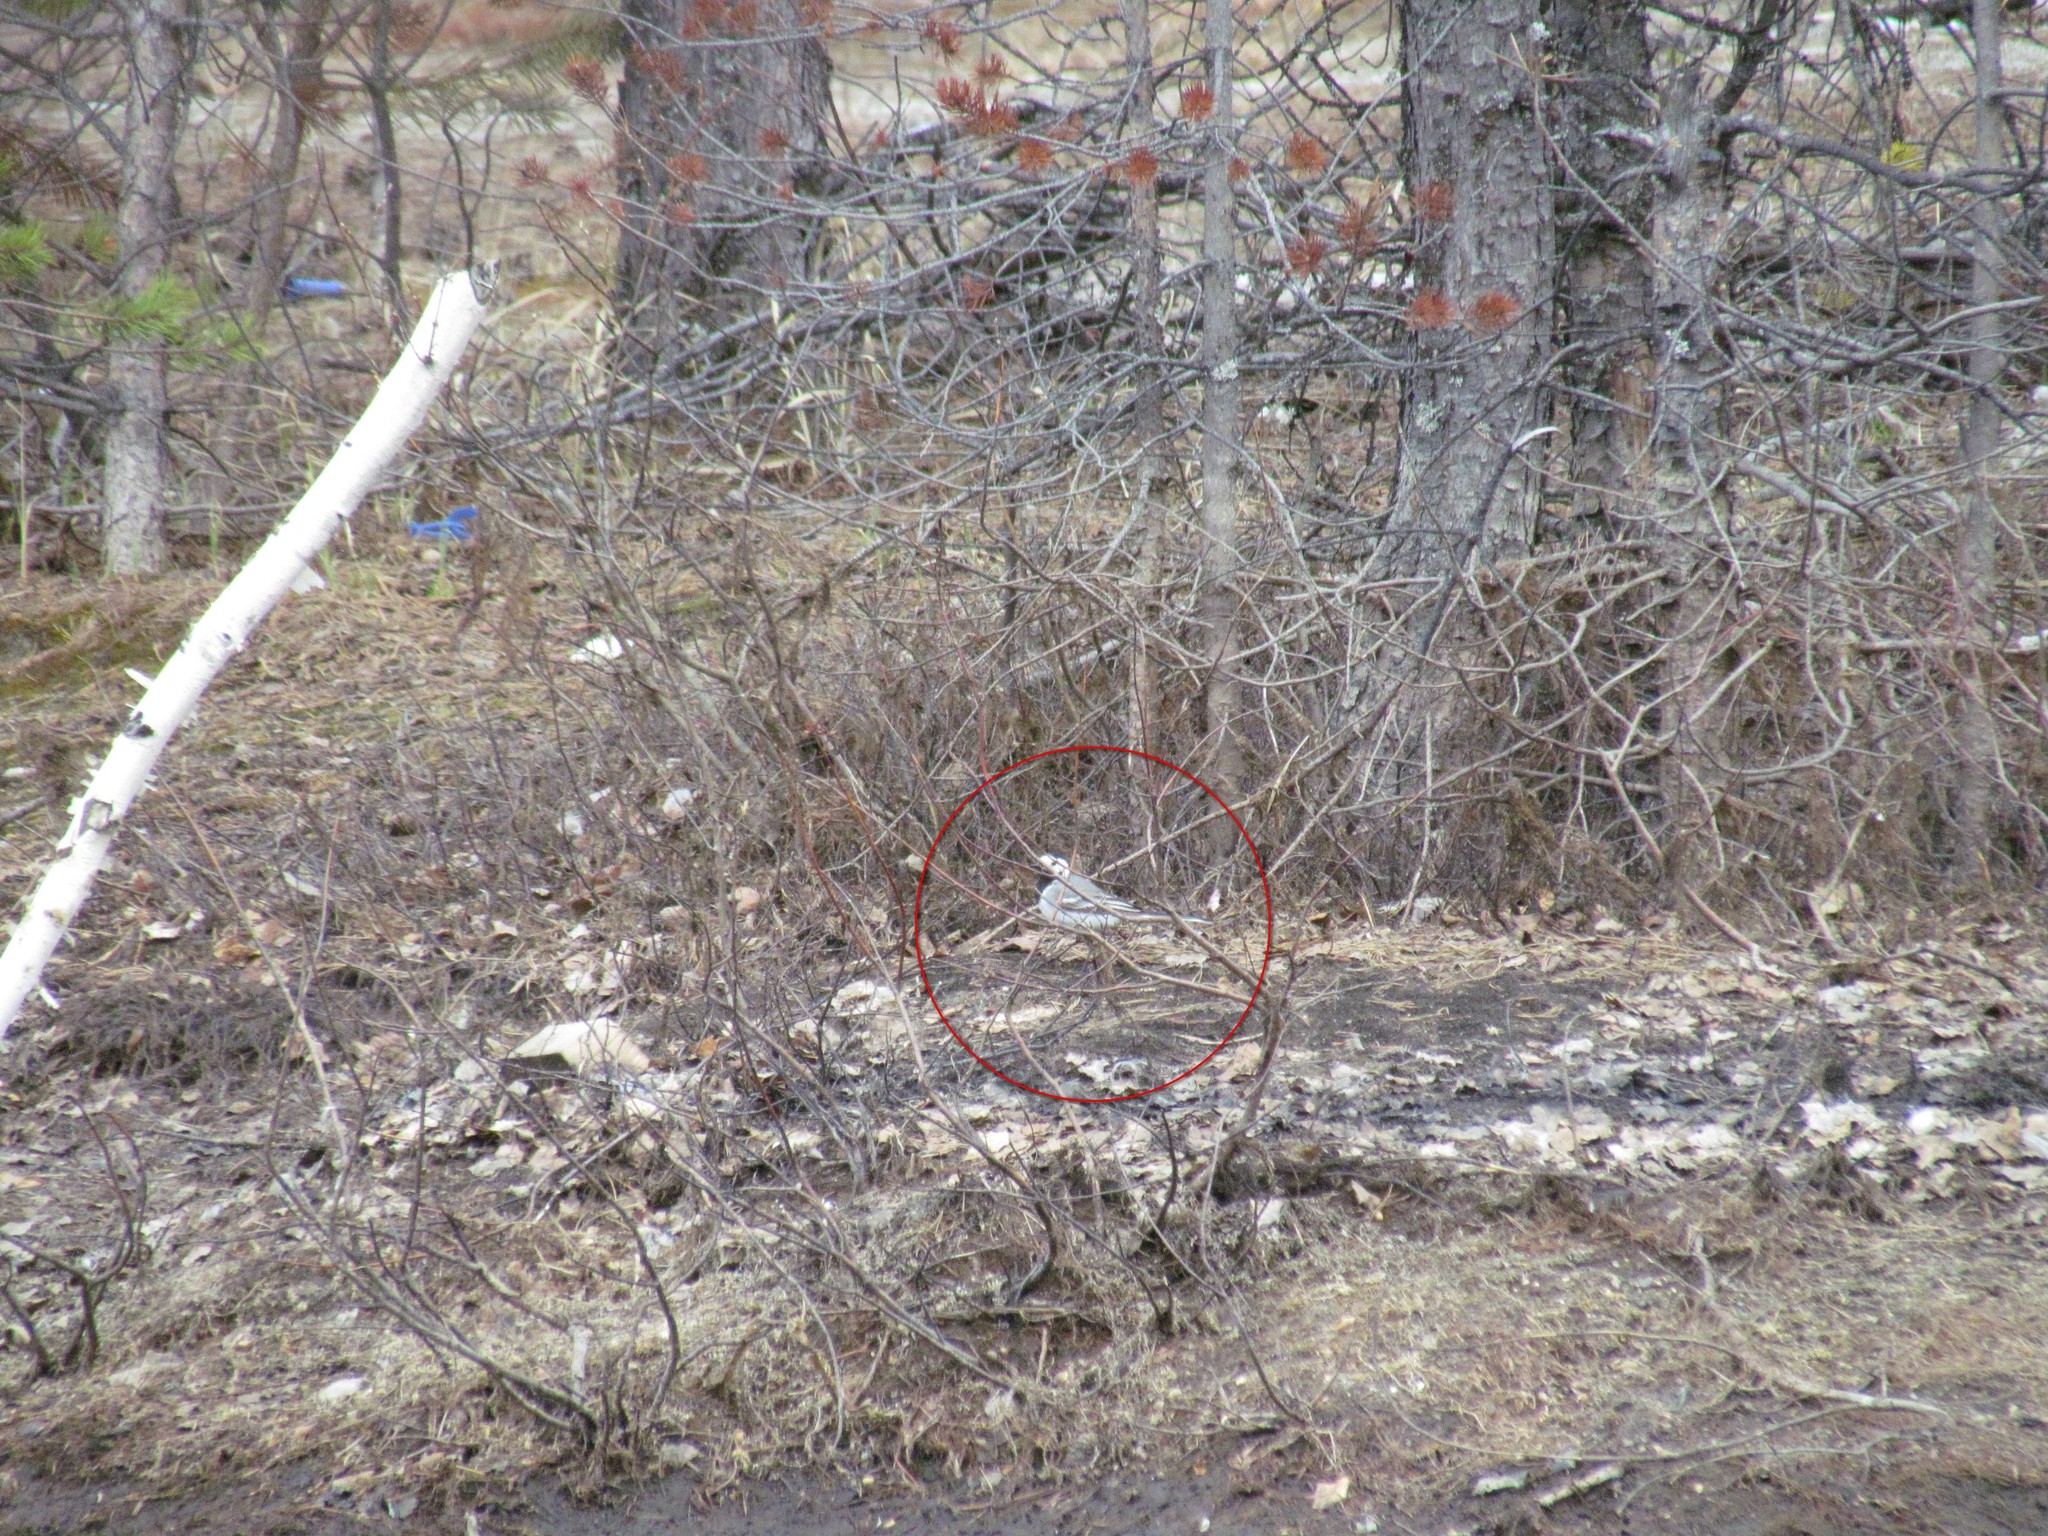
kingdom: Animalia
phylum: Chordata
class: Aves
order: Passeriformes
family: Motacillidae
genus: Motacilla
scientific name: Motacilla alba
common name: White wagtail
